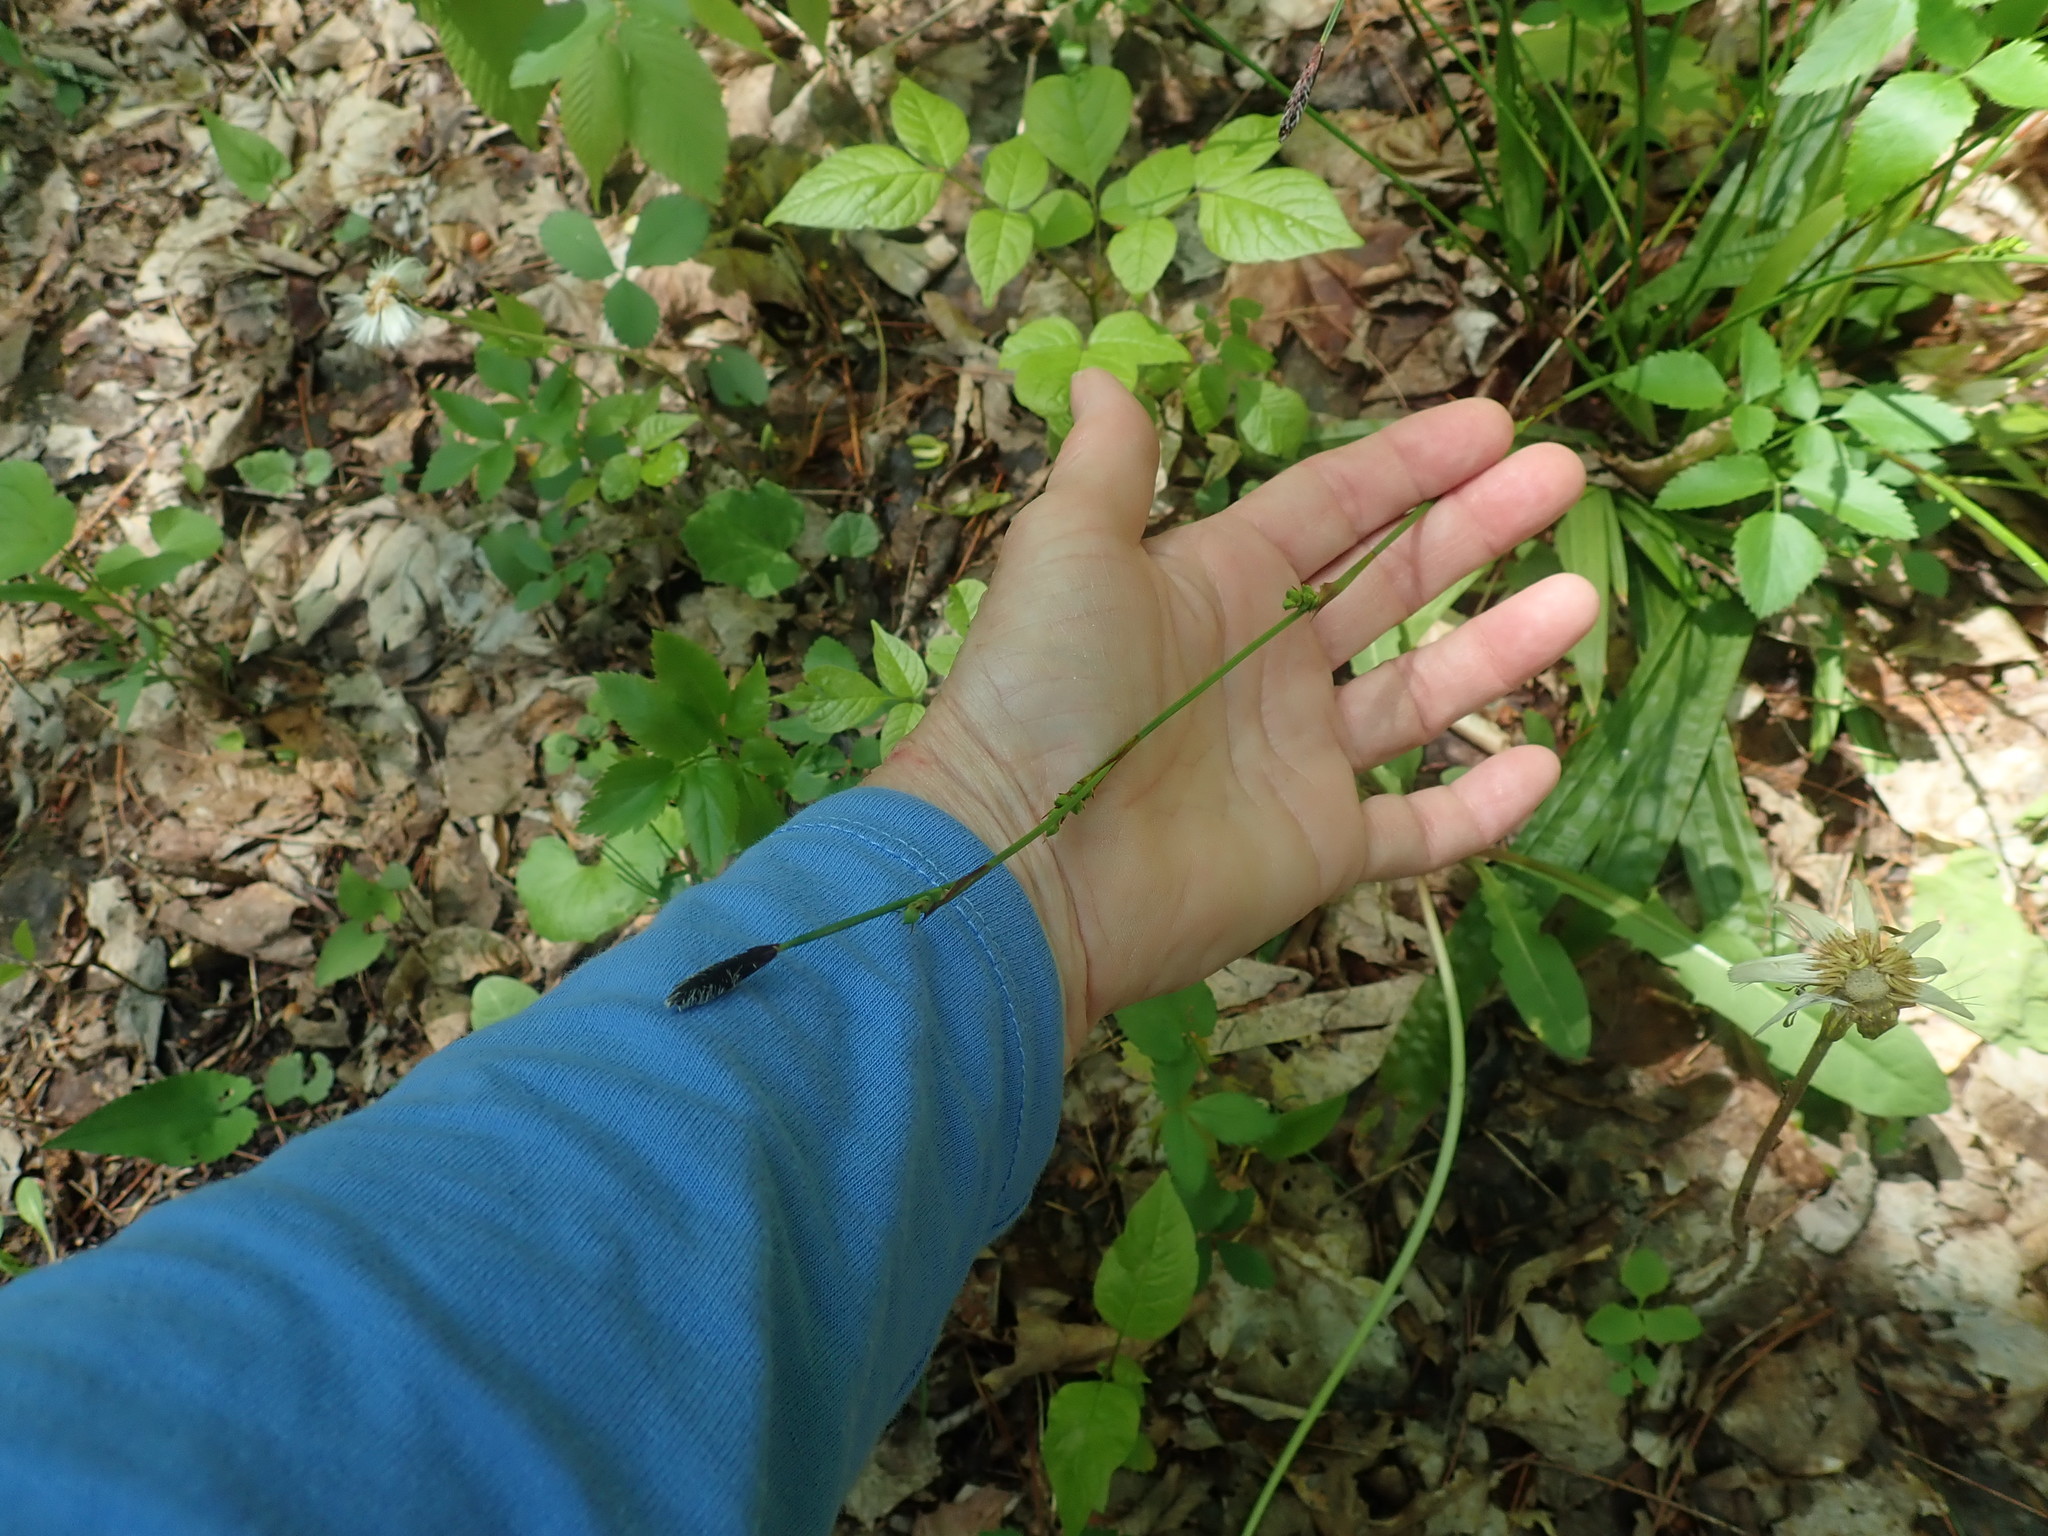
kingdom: Plantae
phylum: Tracheophyta
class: Liliopsida
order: Poales
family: Cyperaceae
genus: Carex
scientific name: Carex plantaginea
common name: Plantain-leaved sedge
